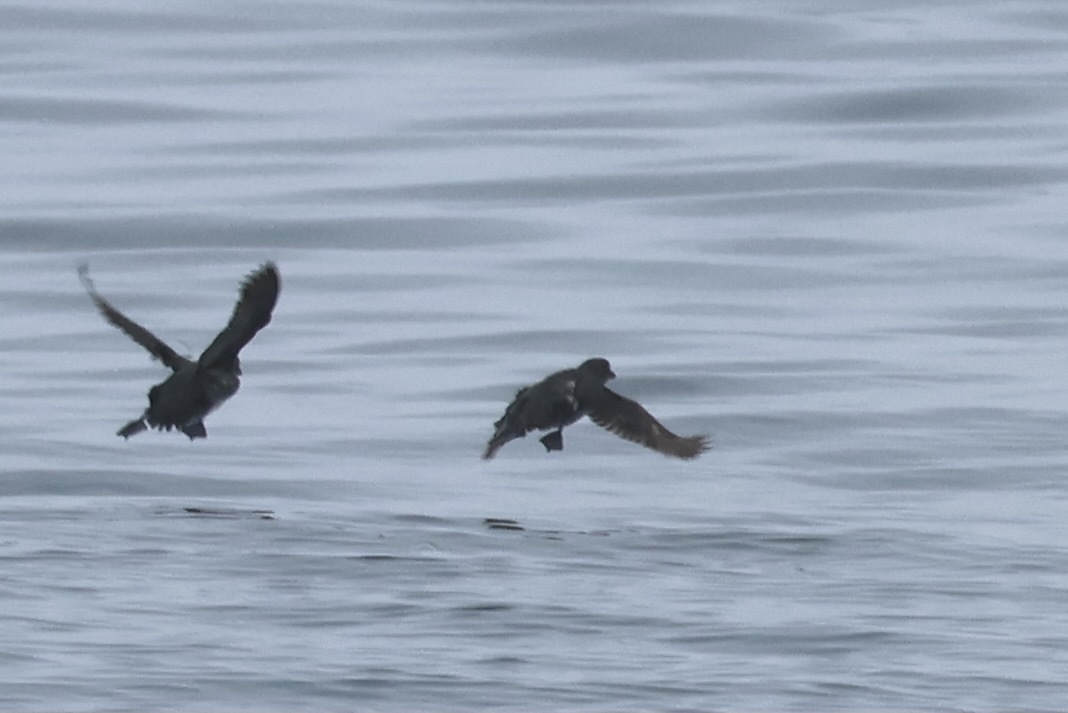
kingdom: Animalia
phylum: Chordata
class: Aves
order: Charadriiformes
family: Alcidae
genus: Ptychoramphus
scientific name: Ptychoramphus aleuticus
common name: Cassin's auklet
